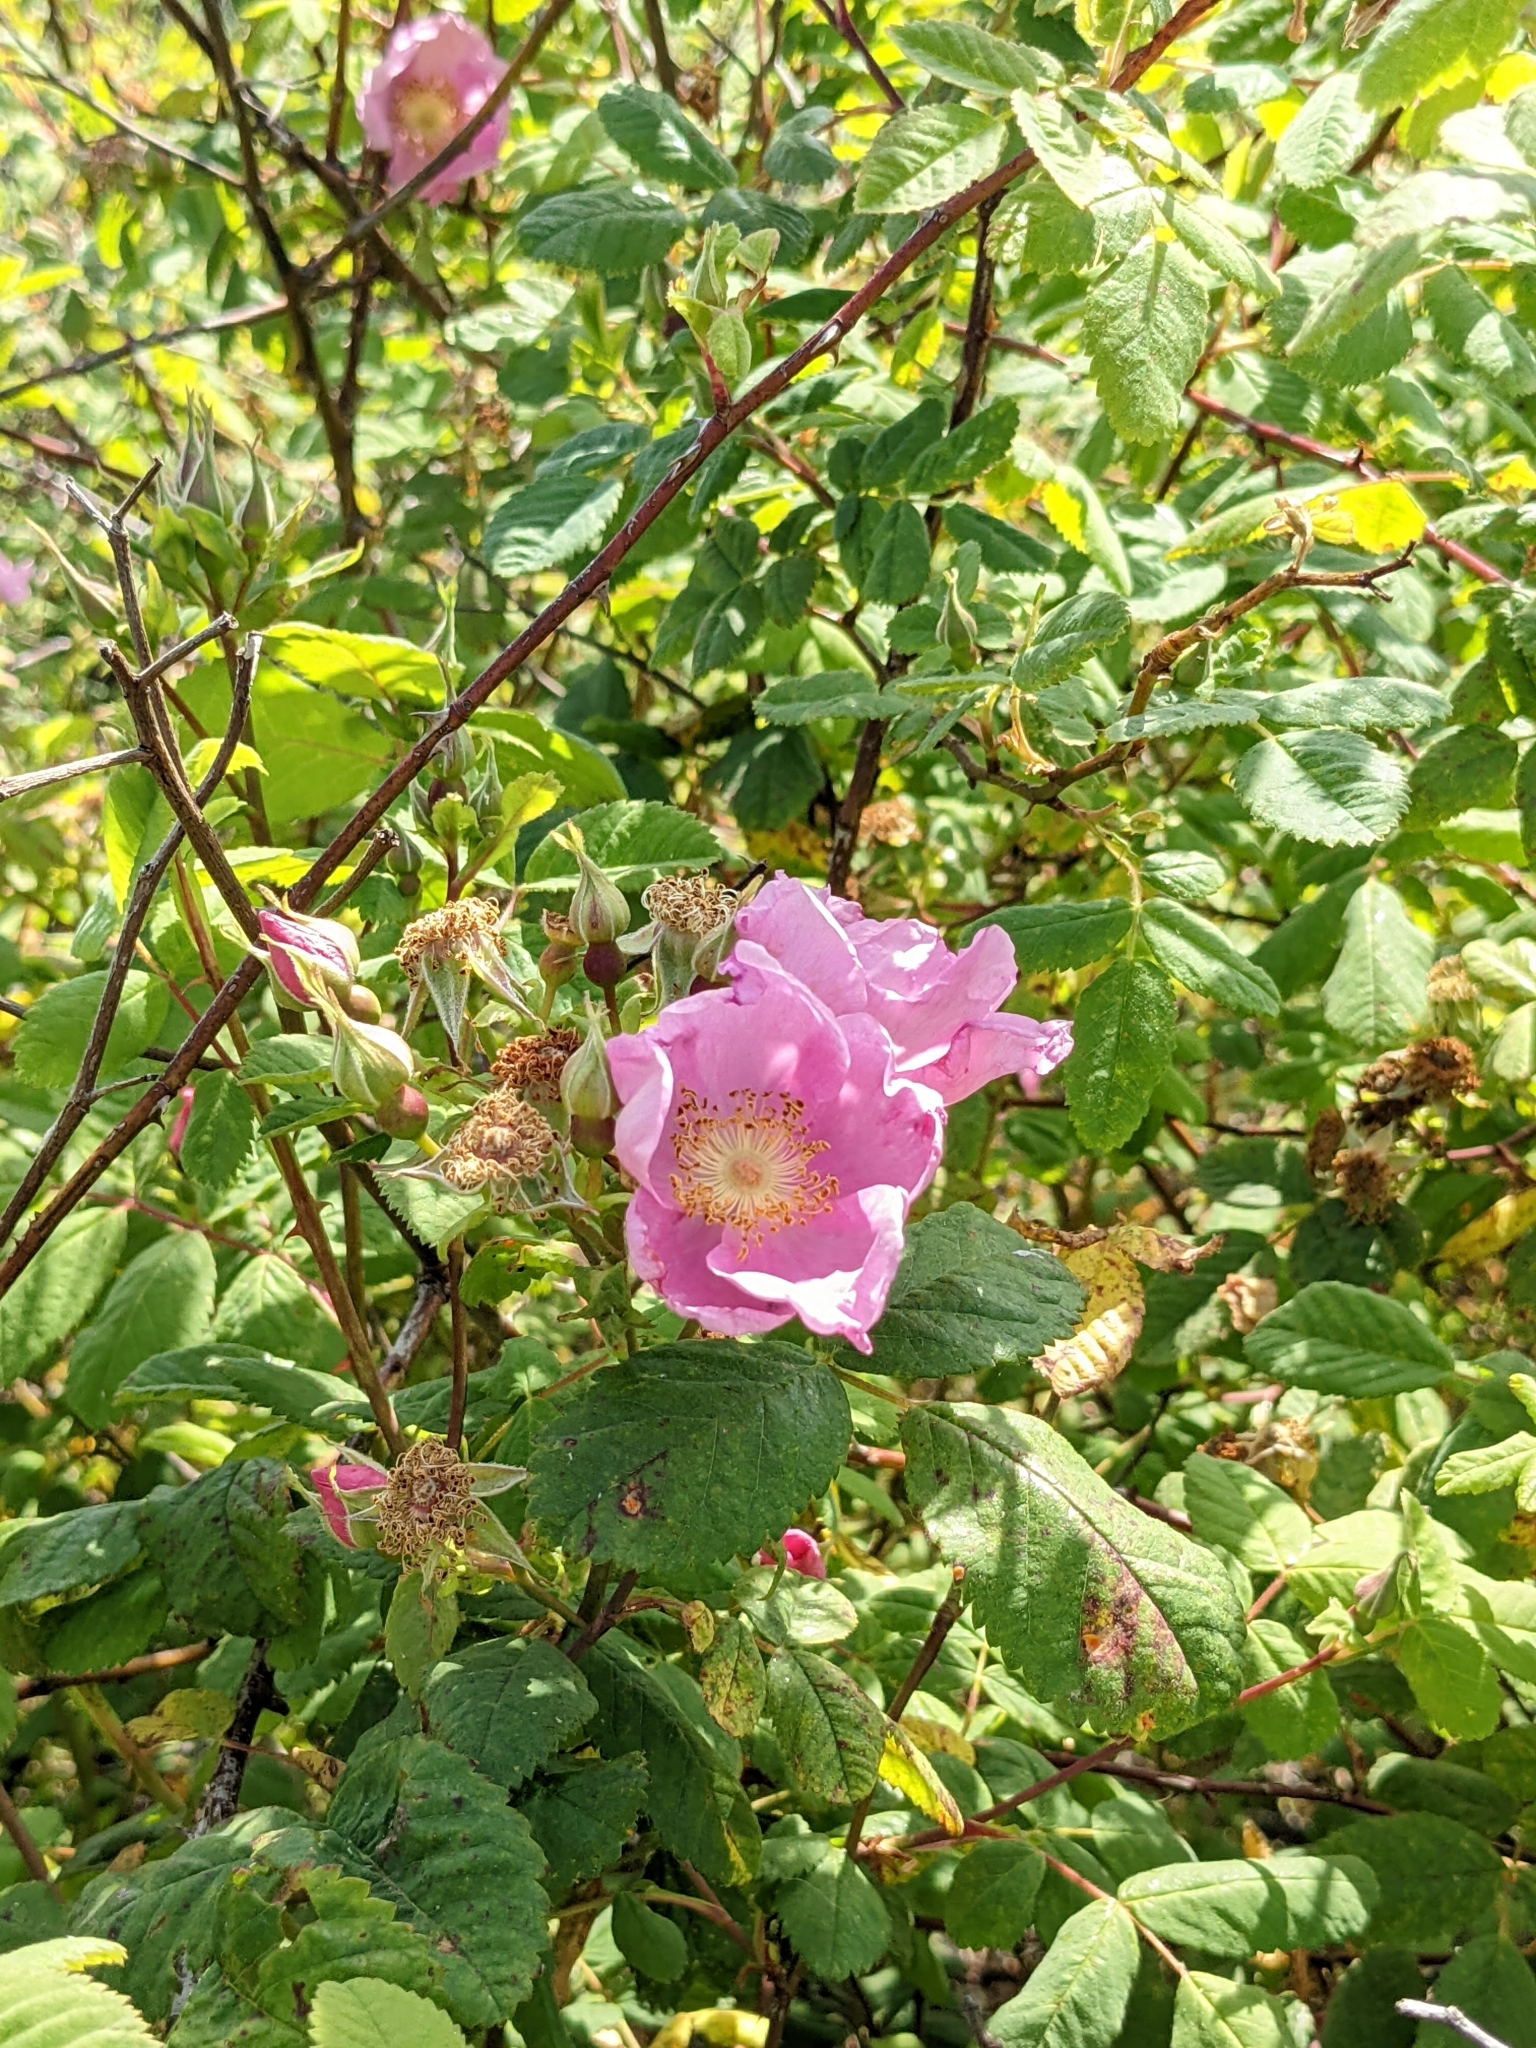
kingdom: Plantae
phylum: Tracheophyta
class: Magnoliopsida
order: Rosales
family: Rosaceae
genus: Rosa
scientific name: Rosa californica
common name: California rose
